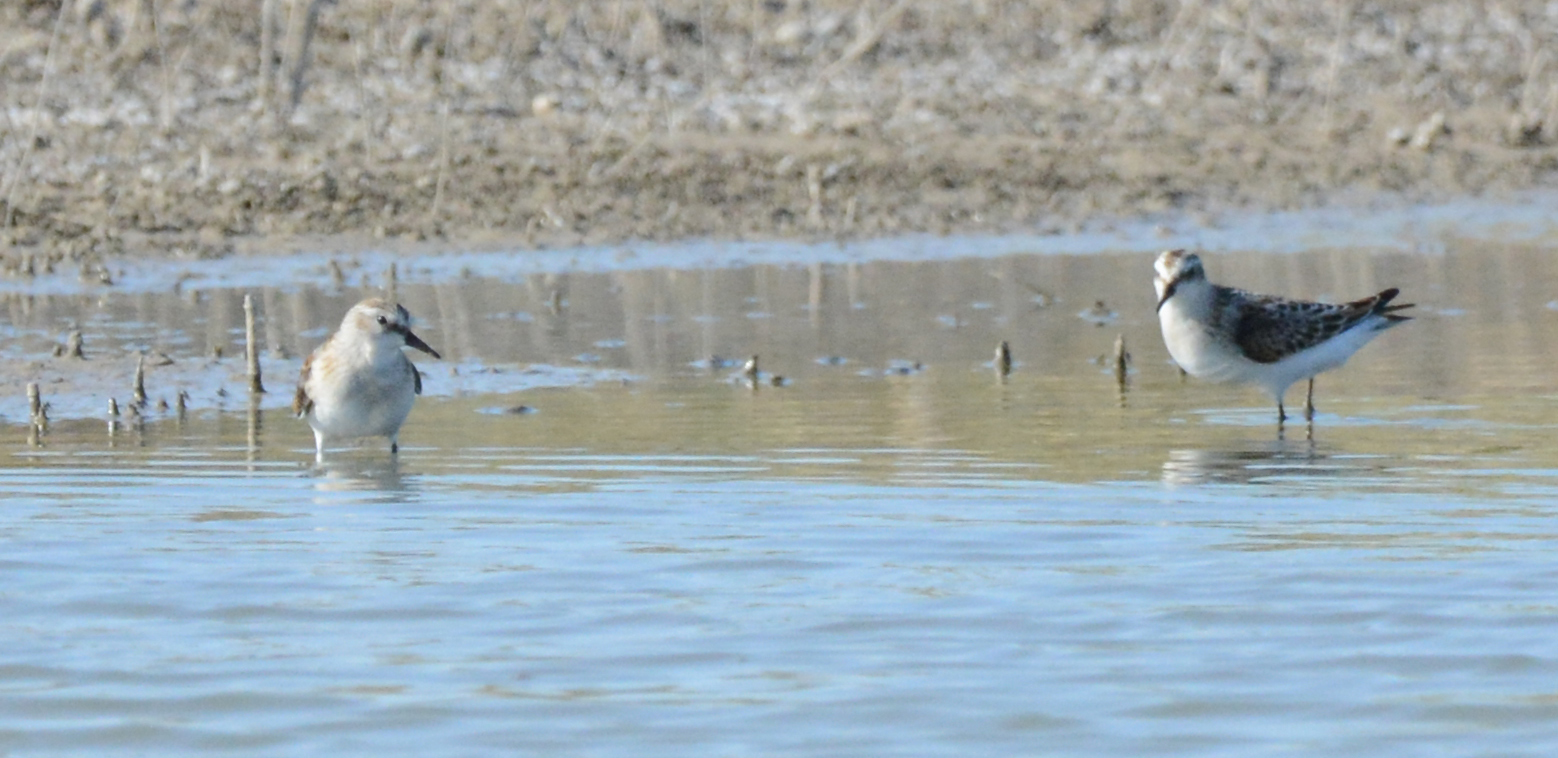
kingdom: Animalia
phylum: Chordata
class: Aves
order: Charadriiformes
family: Scolopacidae
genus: Calidris
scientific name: Calidris minuta
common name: Little stint
